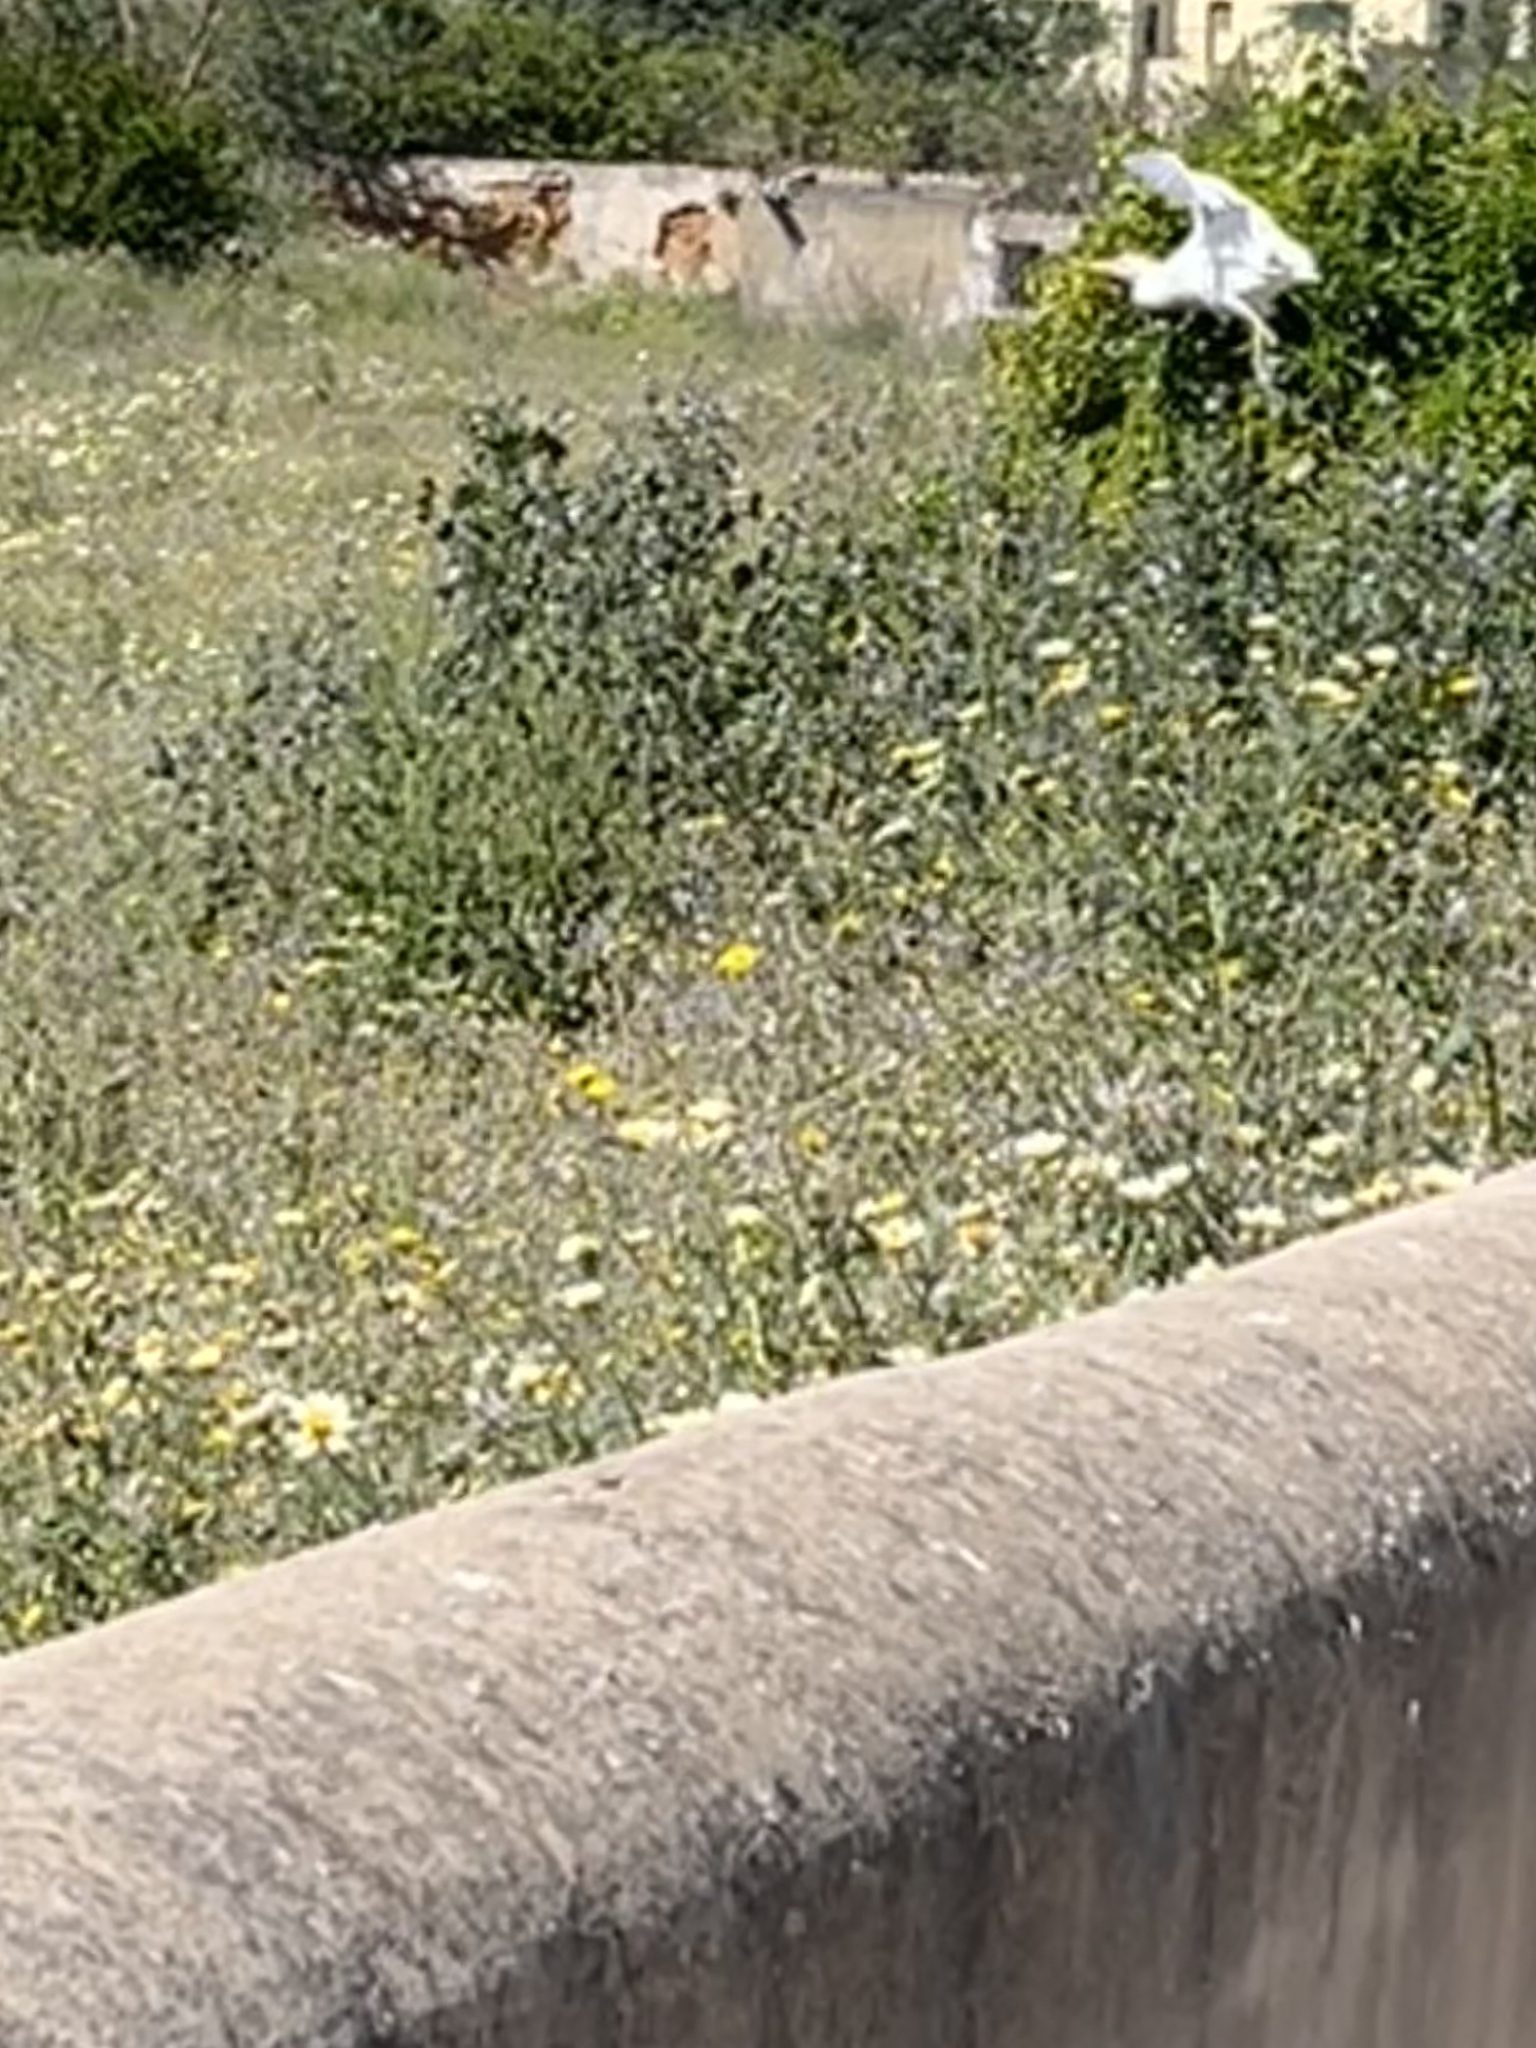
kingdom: Animalia
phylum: Chordata
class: Aves
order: Pelecaniformes
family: Ardeidae
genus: Bubulcus
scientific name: Bubulcus ibis
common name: Cattle egret
